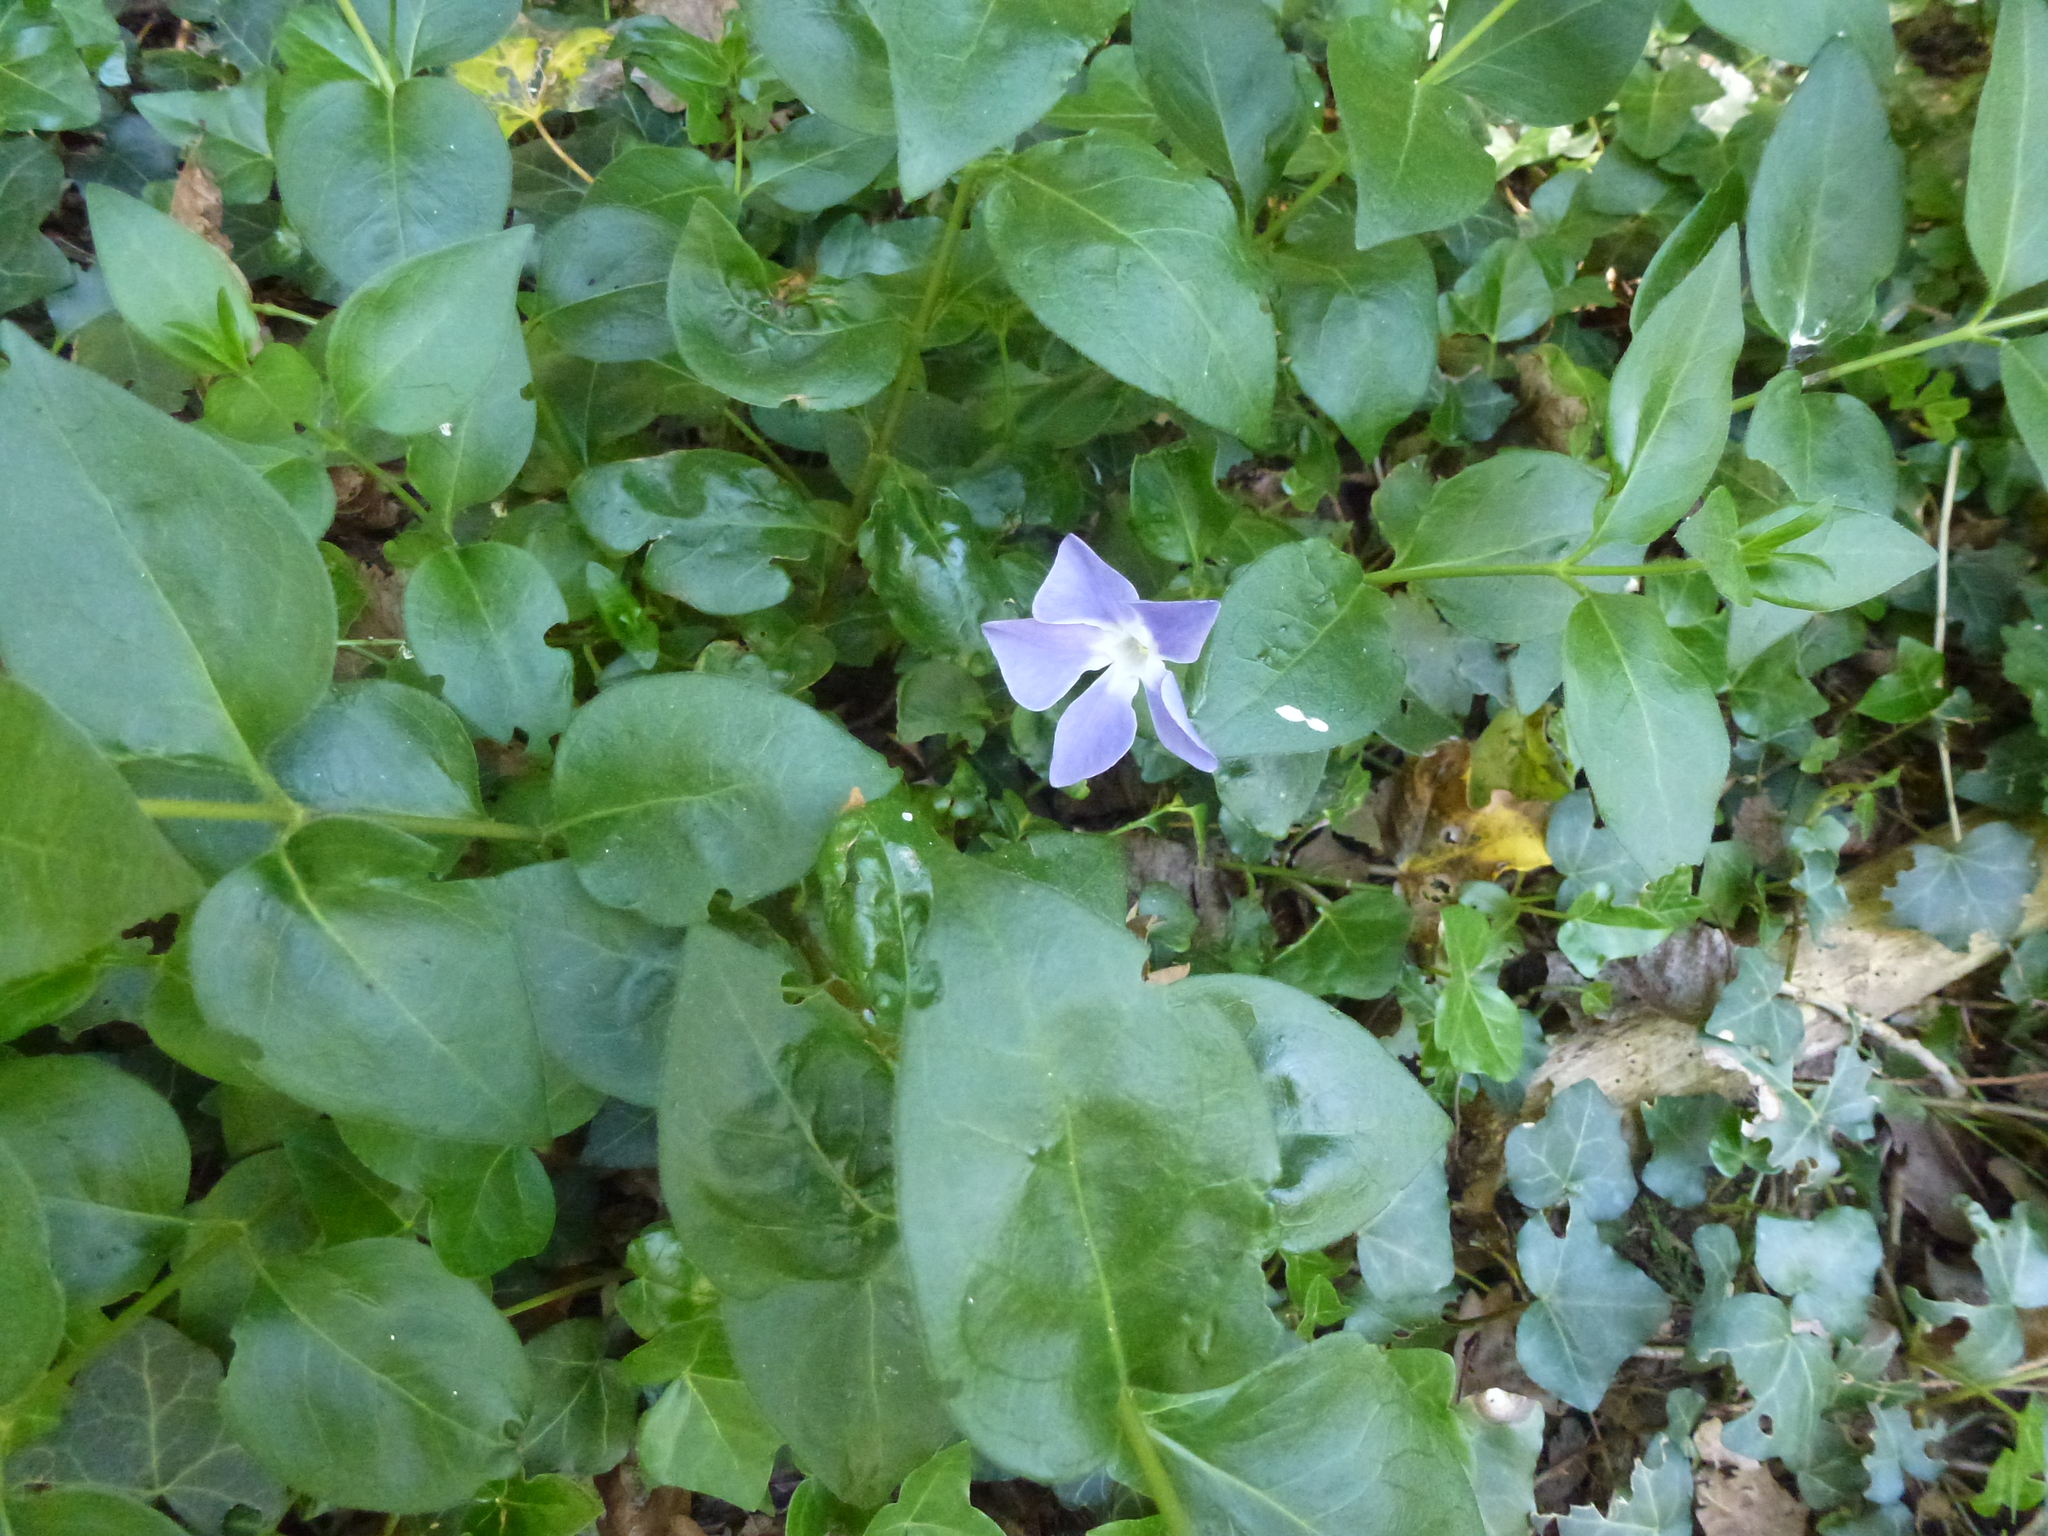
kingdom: Plantae
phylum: Tracheophyta
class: Magnoliopsida
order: Gentianales
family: Apocynaceae
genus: Vinca
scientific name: Vinca major
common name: Greater periwinkle
